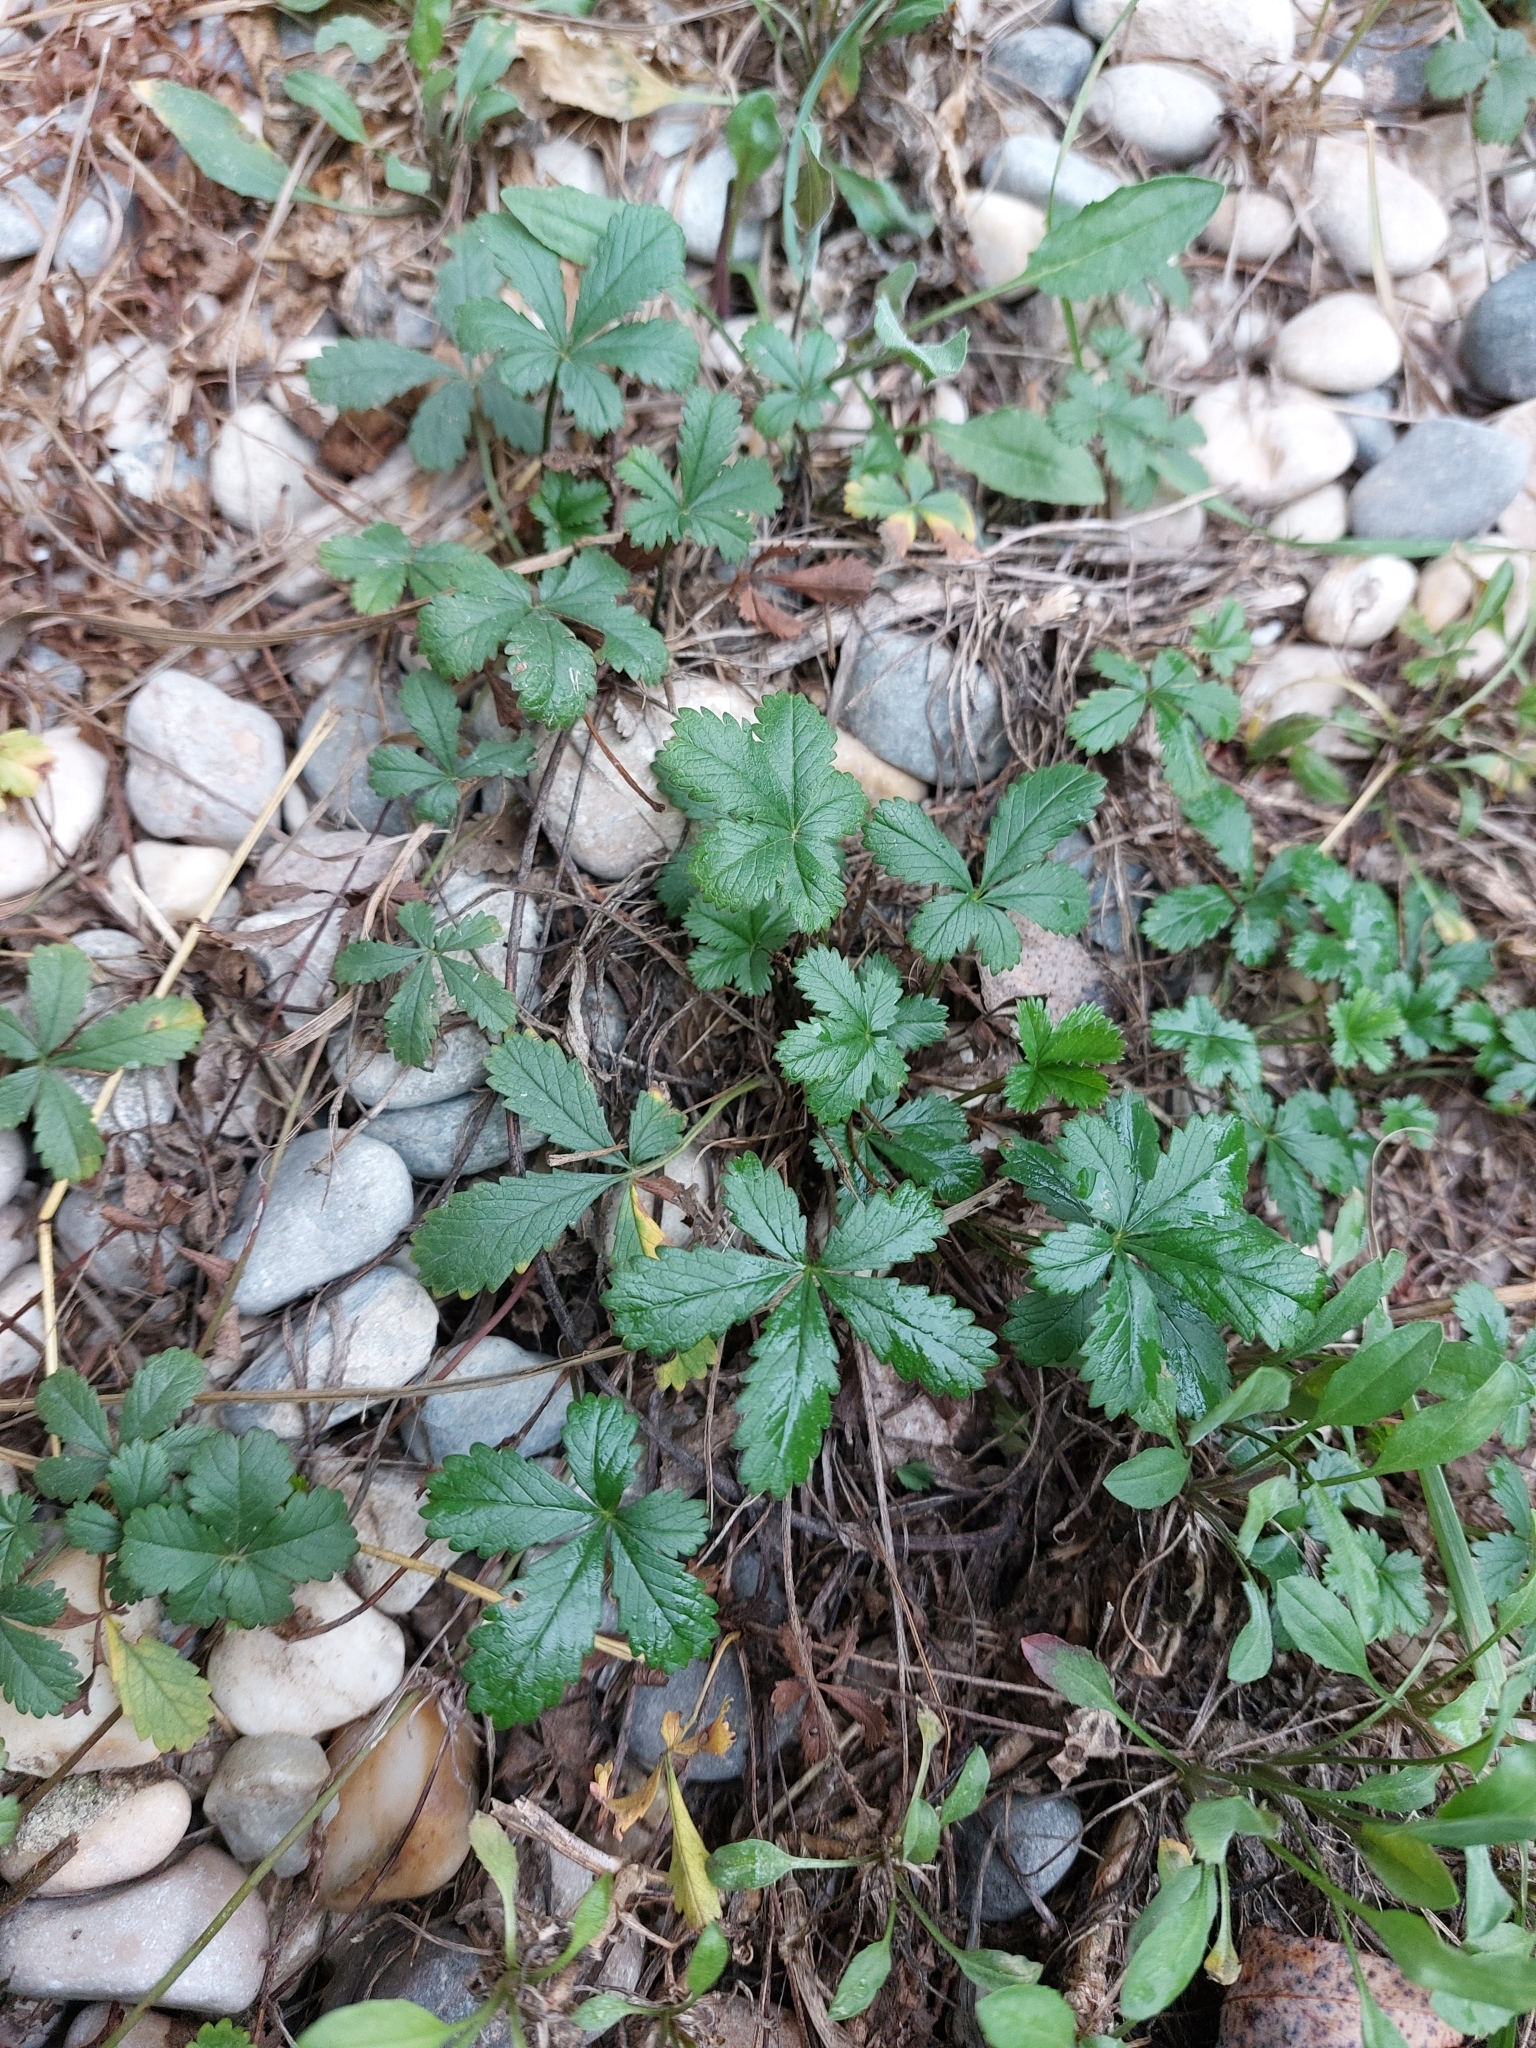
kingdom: Plantae
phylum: Tracheophyta
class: Magnoliopsida
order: Rosales
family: Rosaceae
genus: Potentilla
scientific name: Potentilla reptans
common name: Creeping cinquefoil
